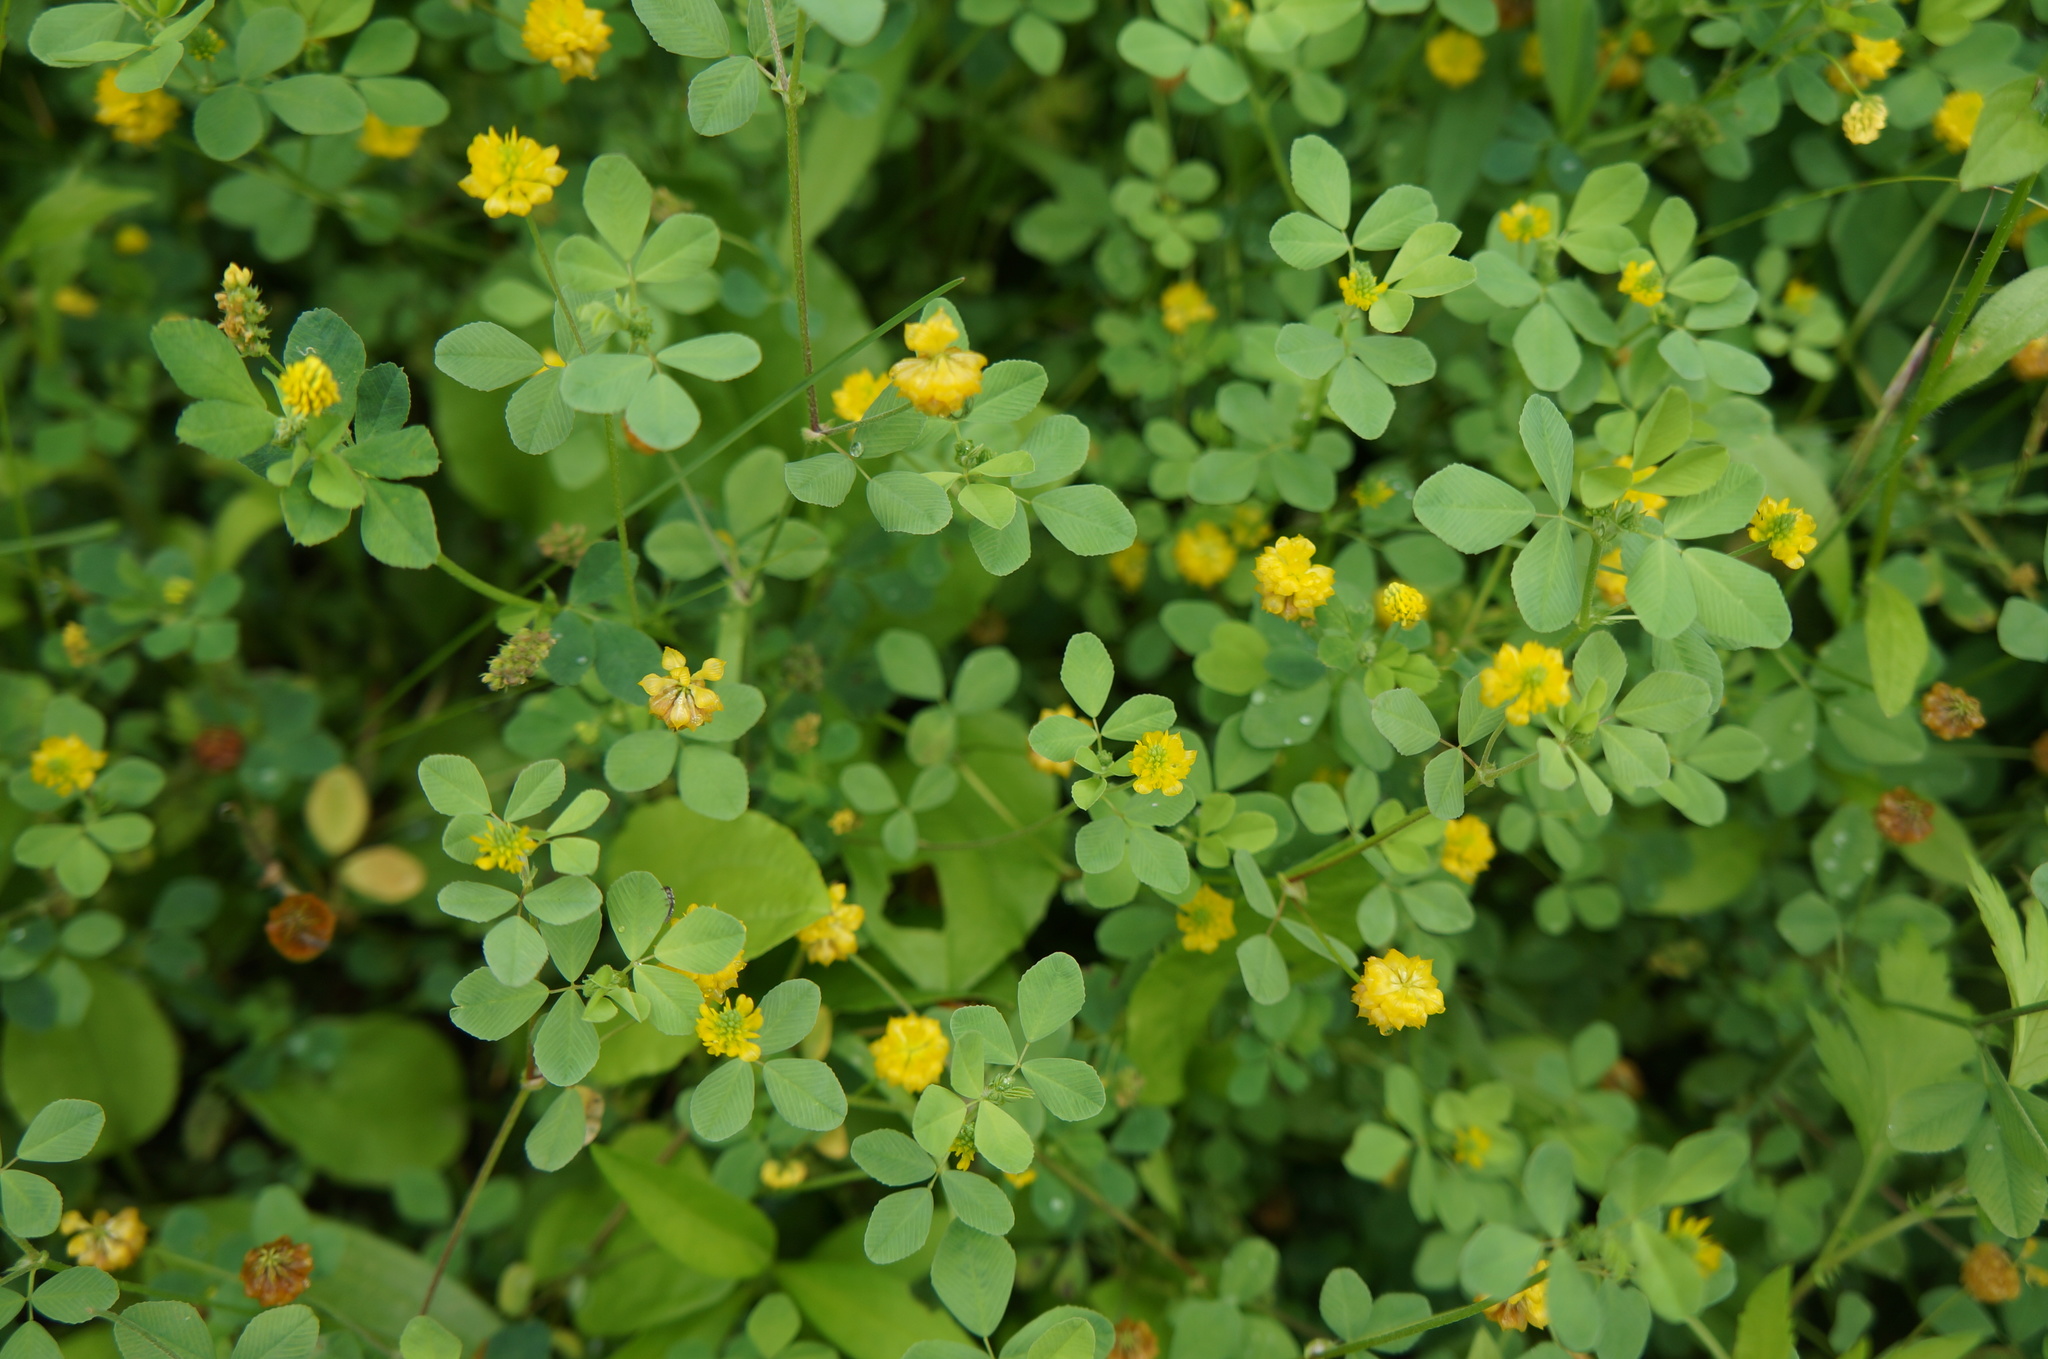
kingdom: Plantae
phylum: Tracheophyta
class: Magnoliopsida
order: Fabales
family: Fabaceae
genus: Medicago
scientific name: Medicago lupulina
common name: Black medick
